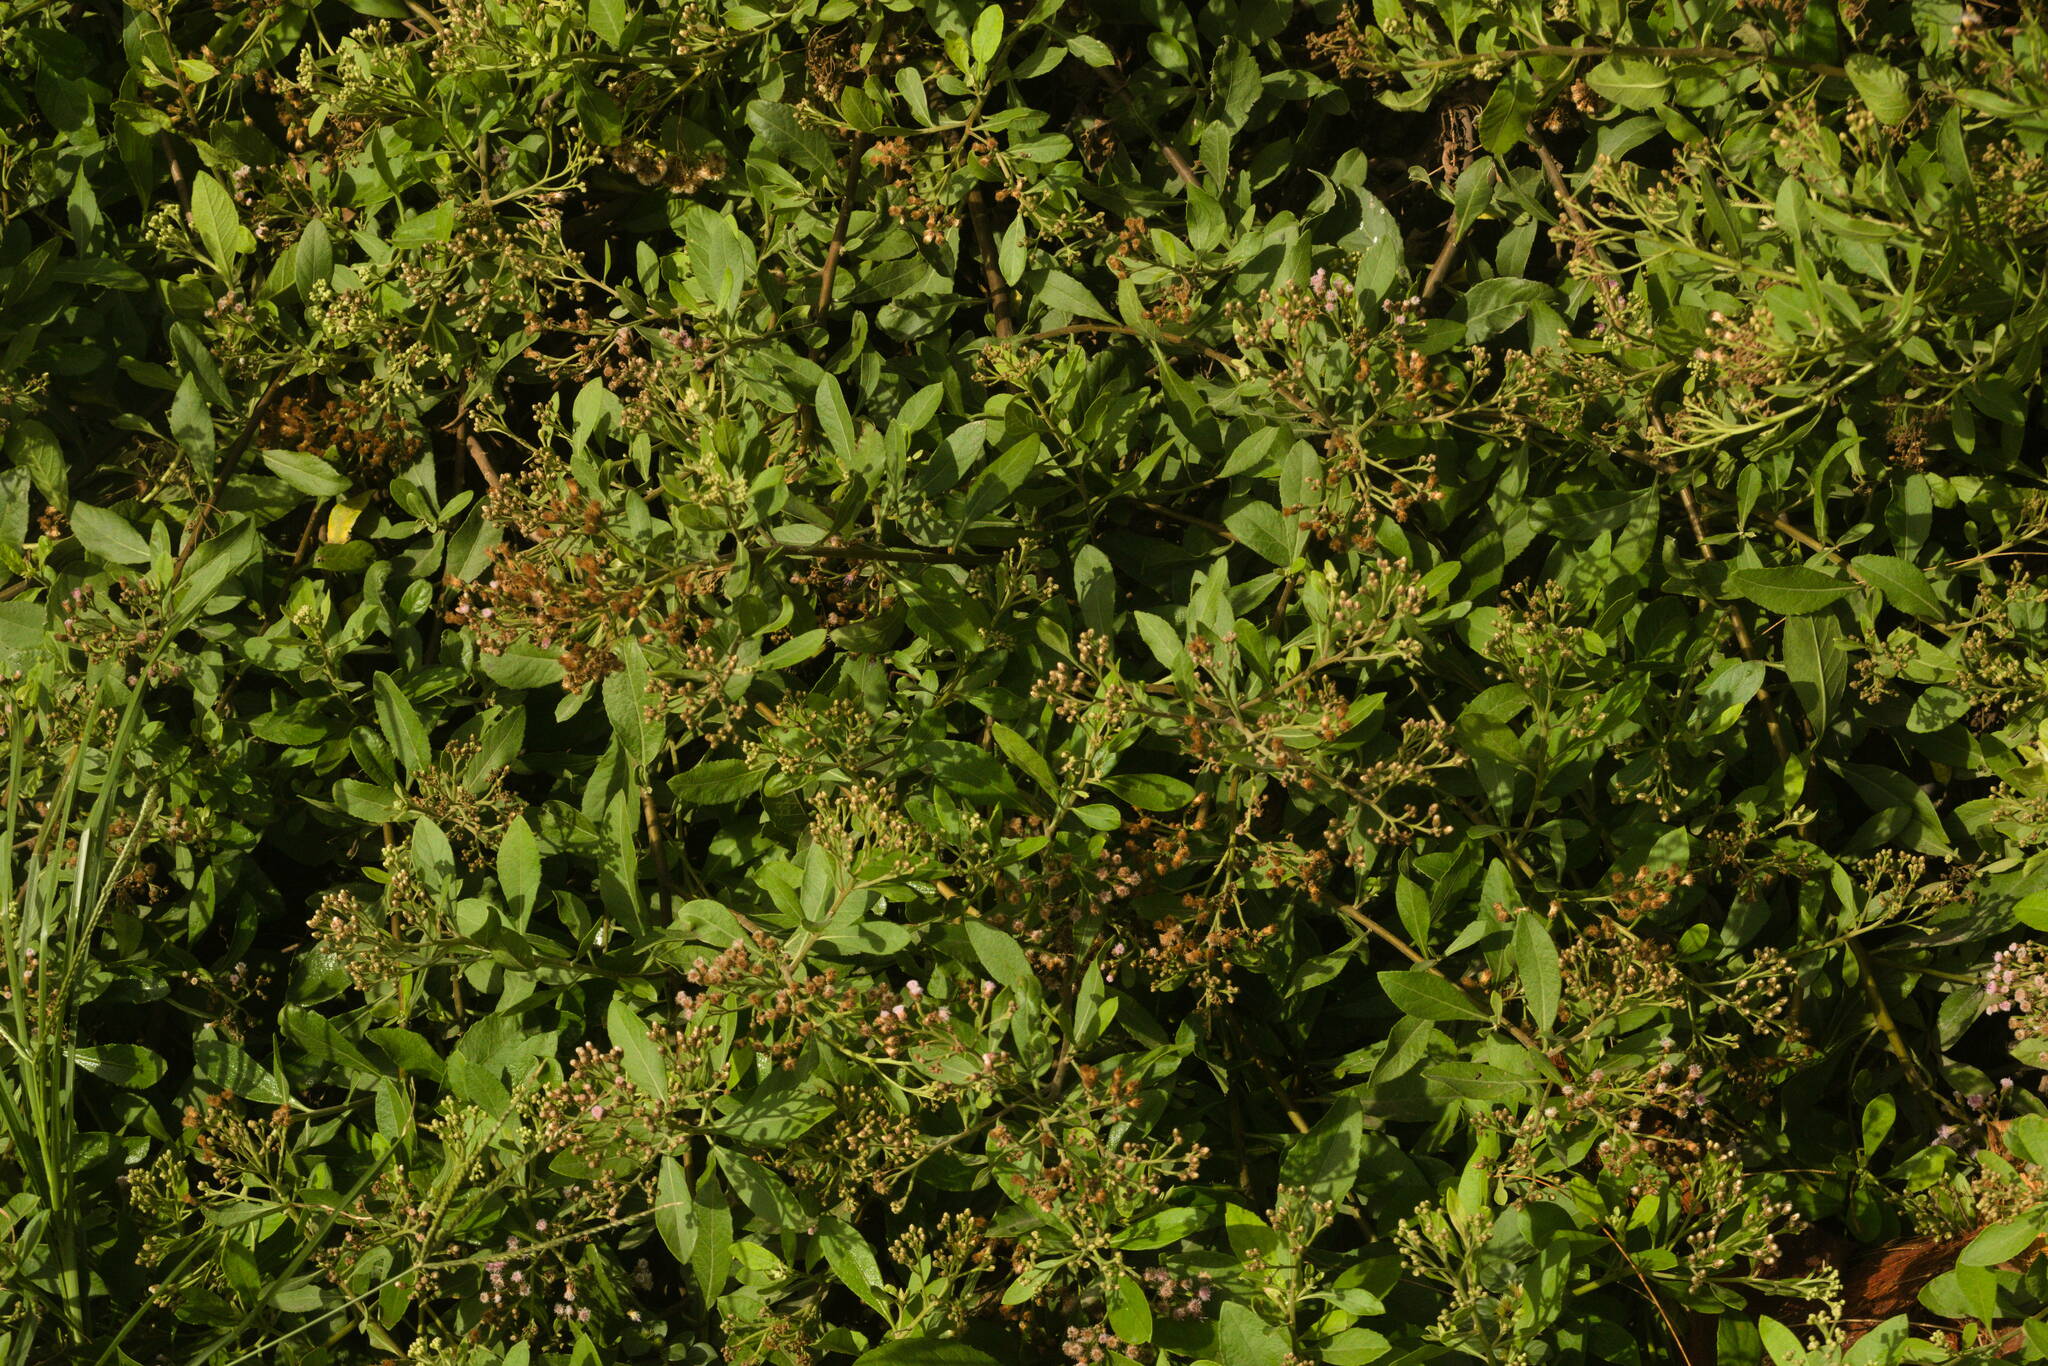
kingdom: Plantae
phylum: Tracheophyta
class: Magnoliopsida
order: Asterales
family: Asteraceae
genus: Pluchea
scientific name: Pluchea fosbergii
